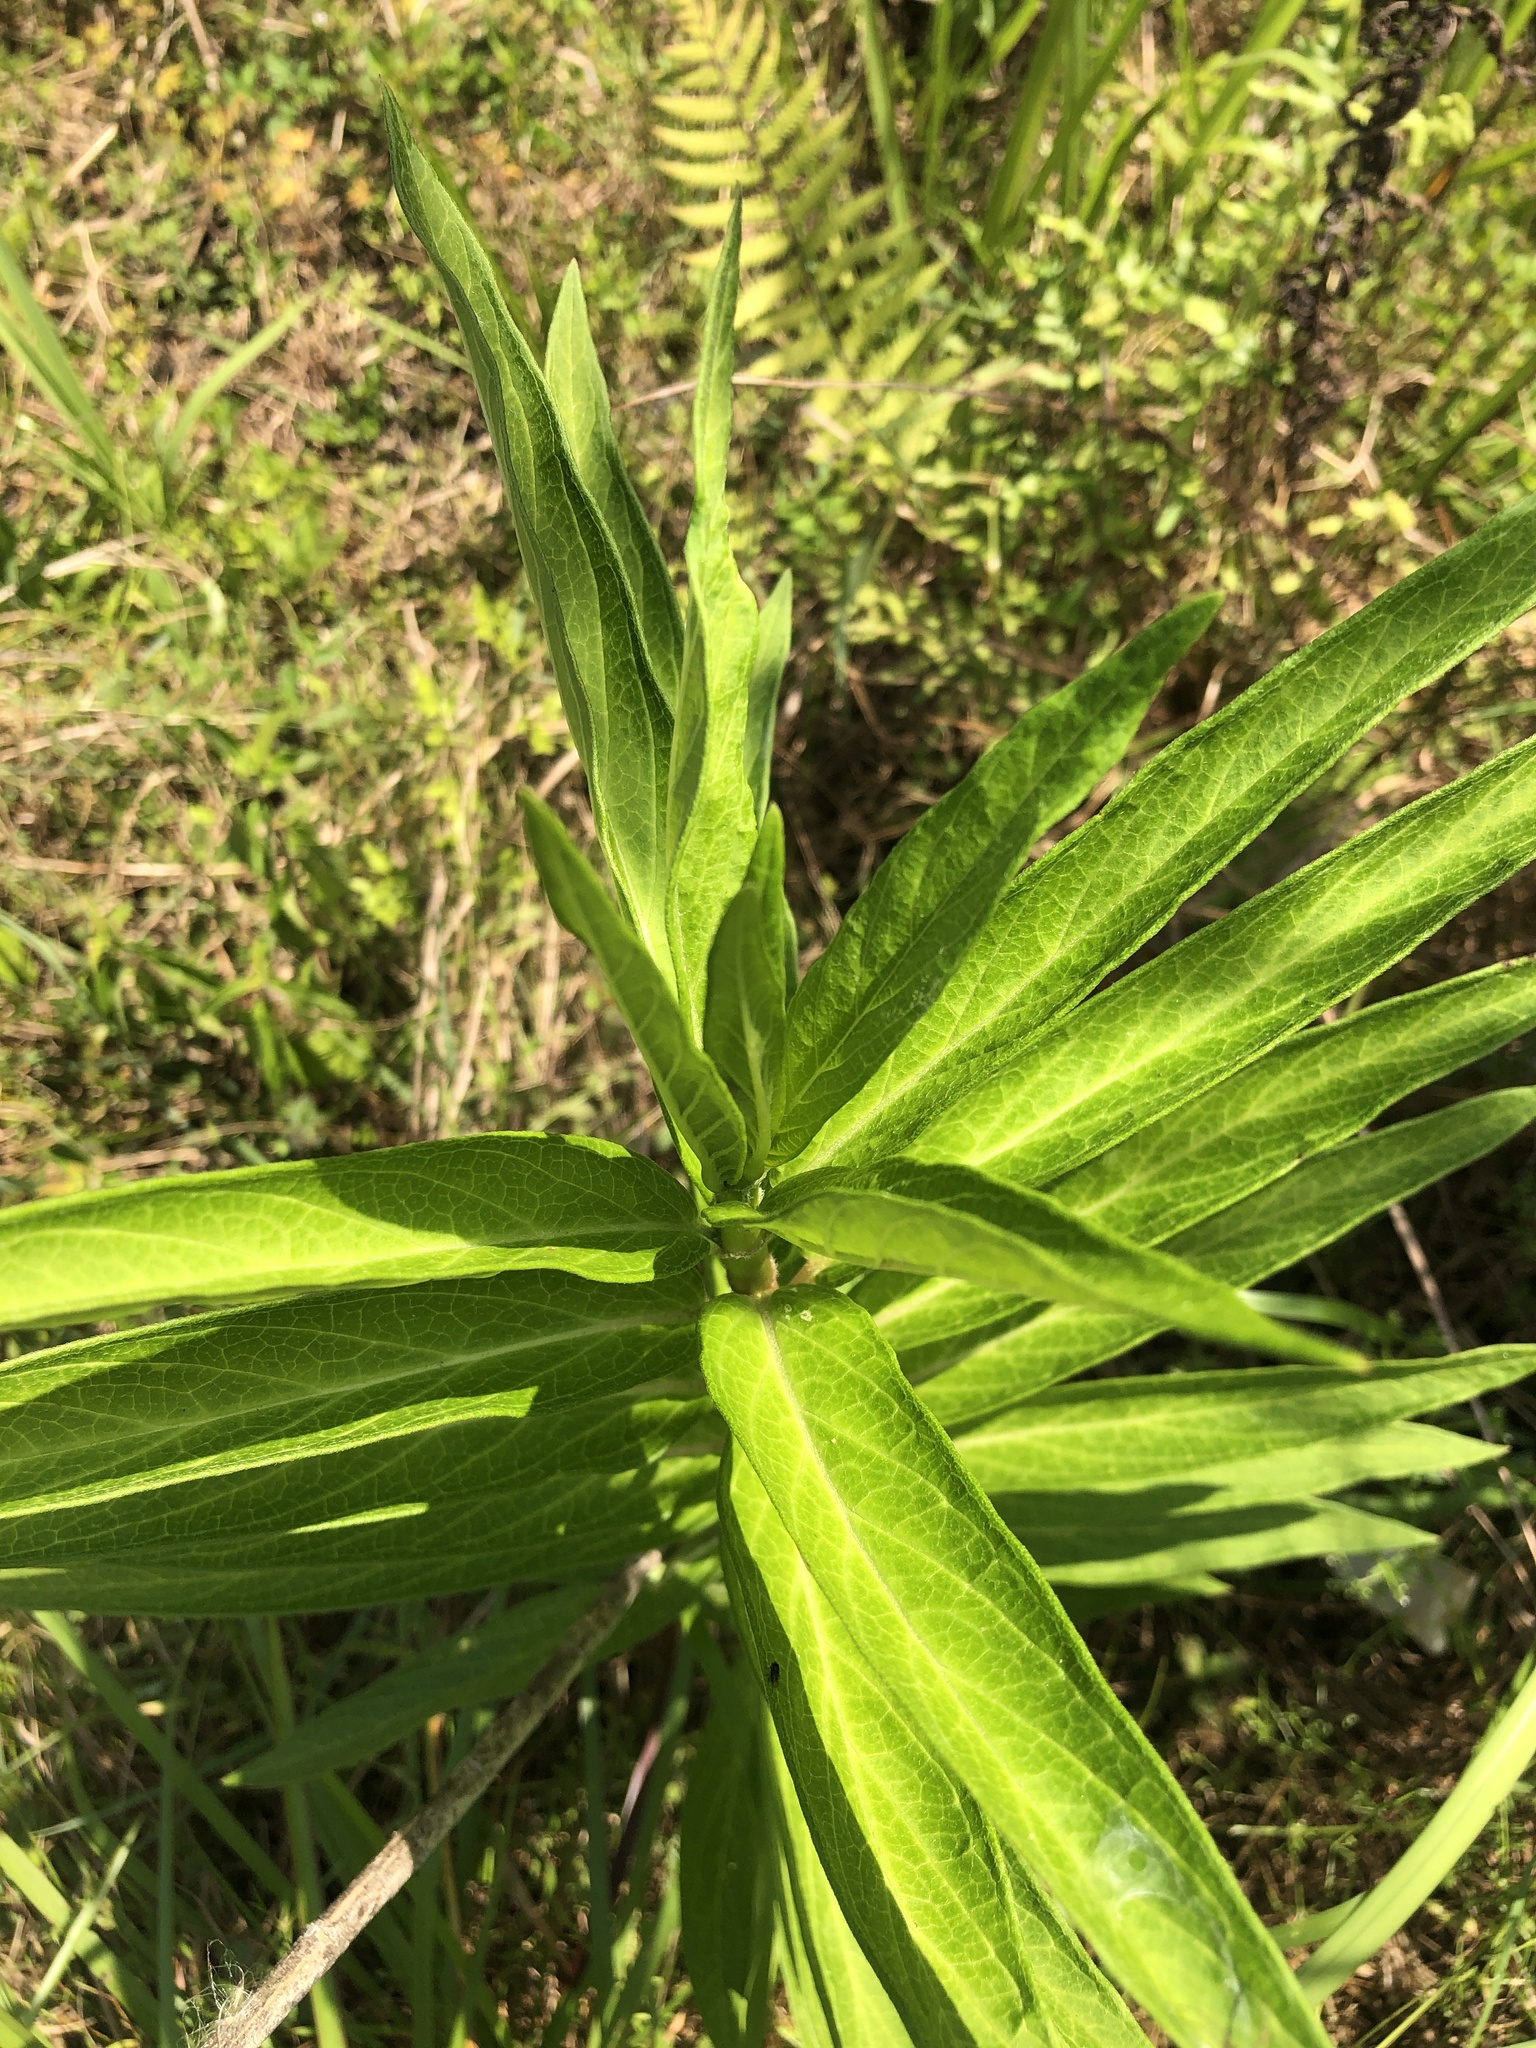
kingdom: Plantae
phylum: Tracheophyta
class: Magnoliopsida
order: Gentianales
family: Apocynaceae
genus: Asclepias
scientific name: Asclepias incarnata
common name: Swamp milkweed
